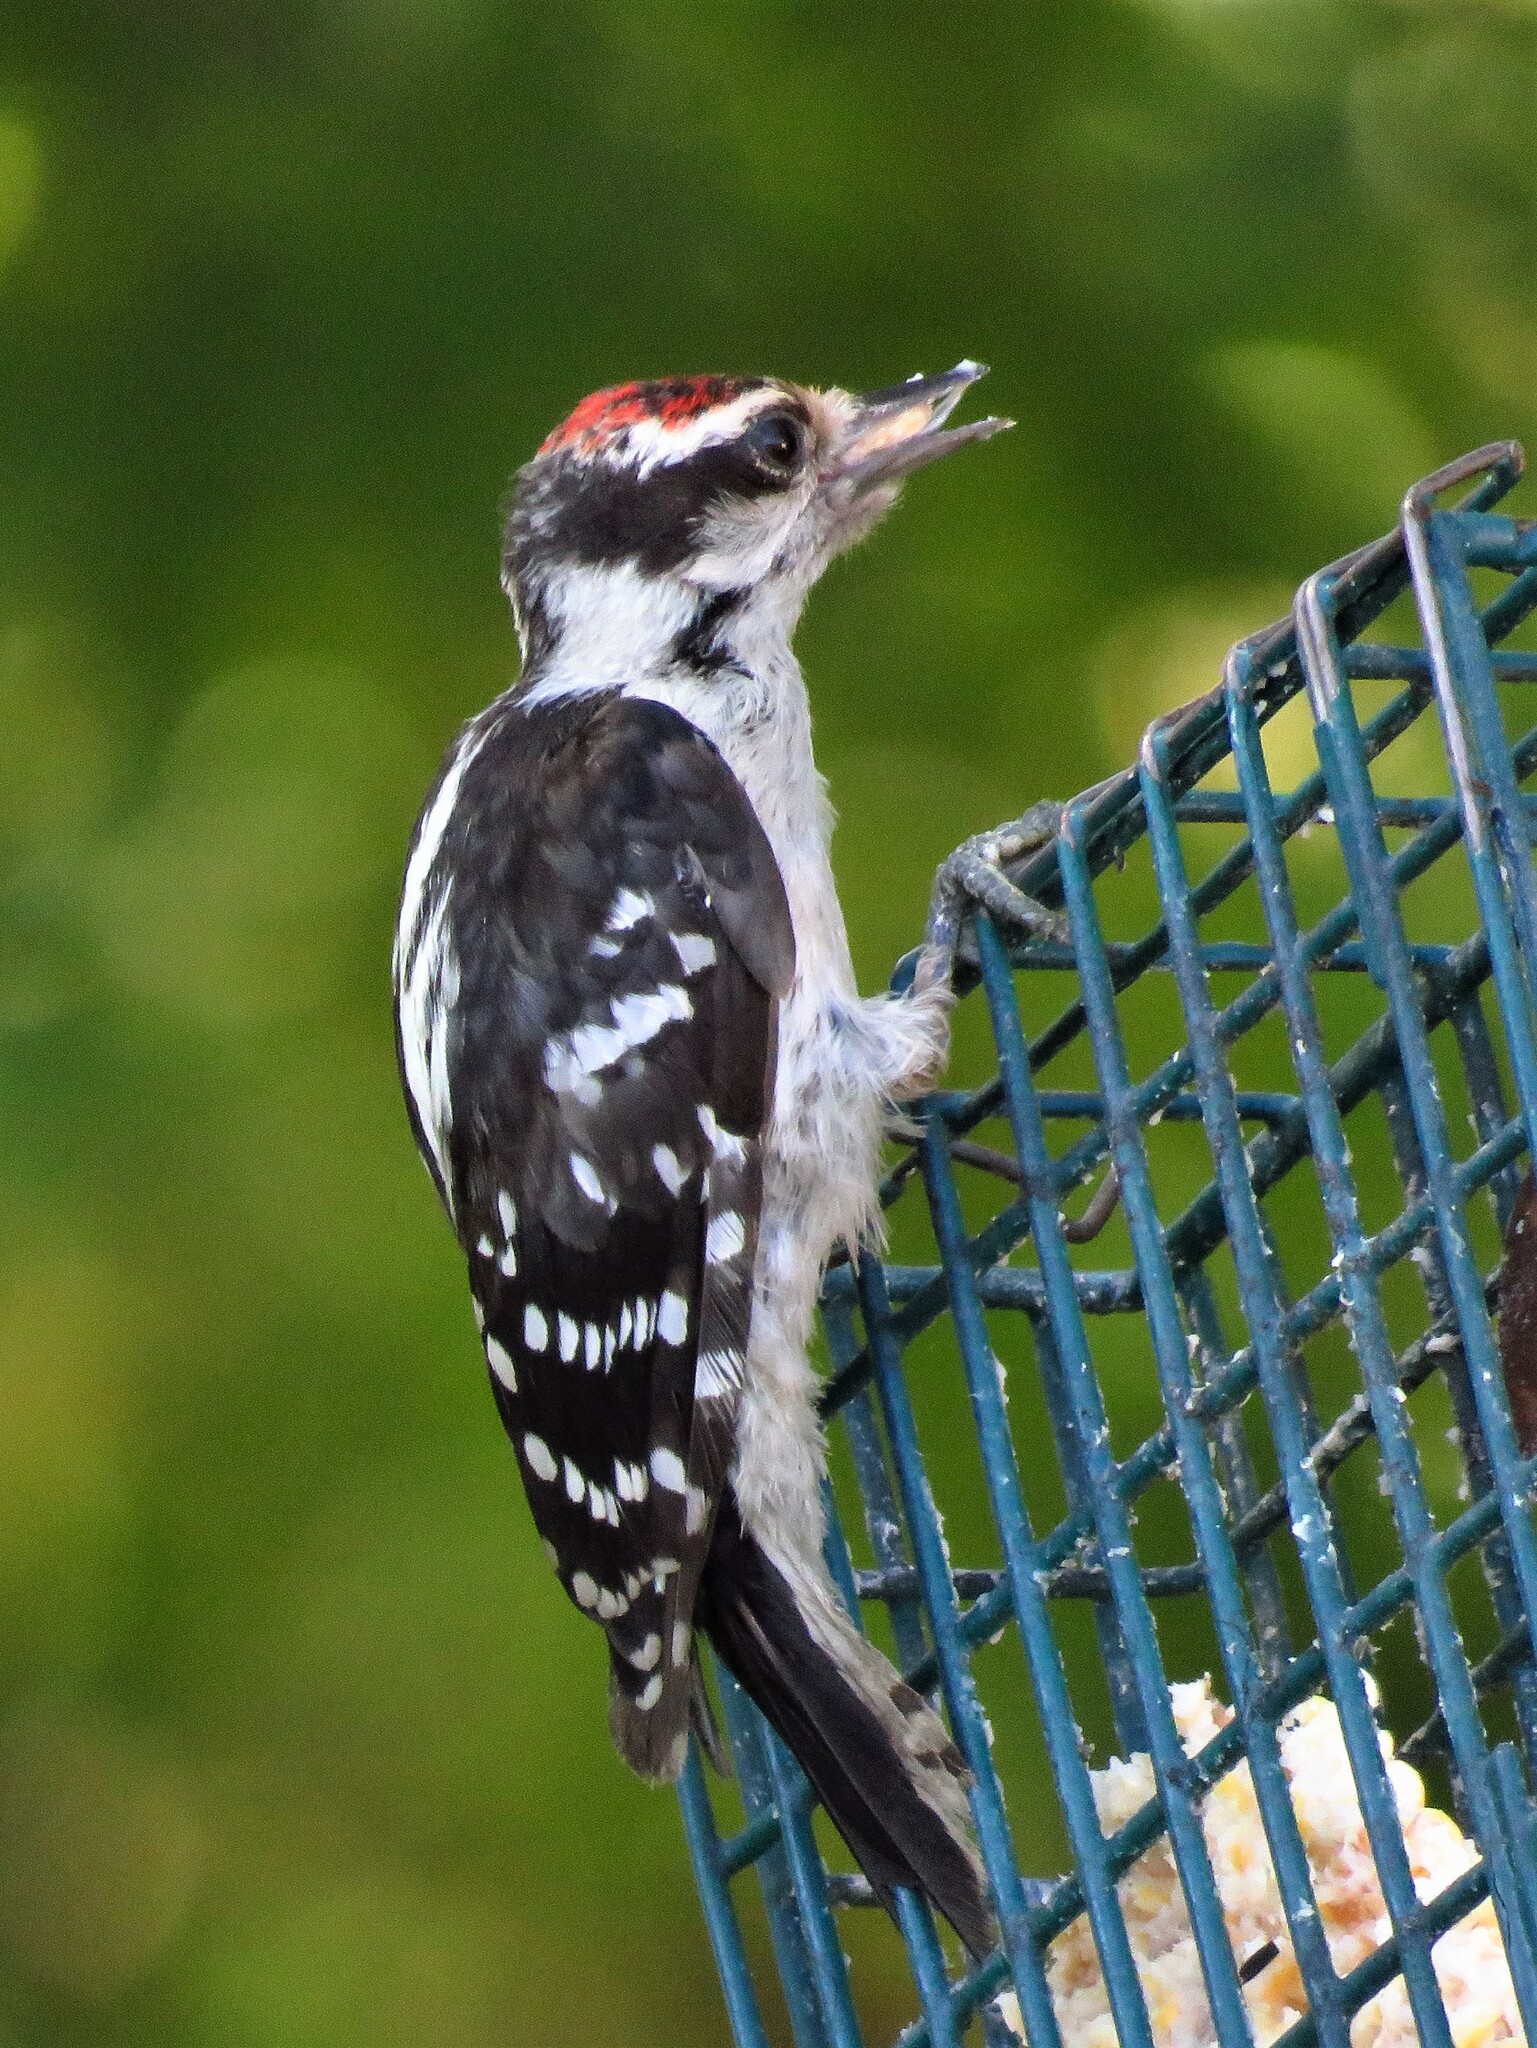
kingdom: Animalia
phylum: Chordata
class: Aves
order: Piciformes
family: Picidae
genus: Dryobates
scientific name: Dryobates pubescens
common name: Downy woodpecker
